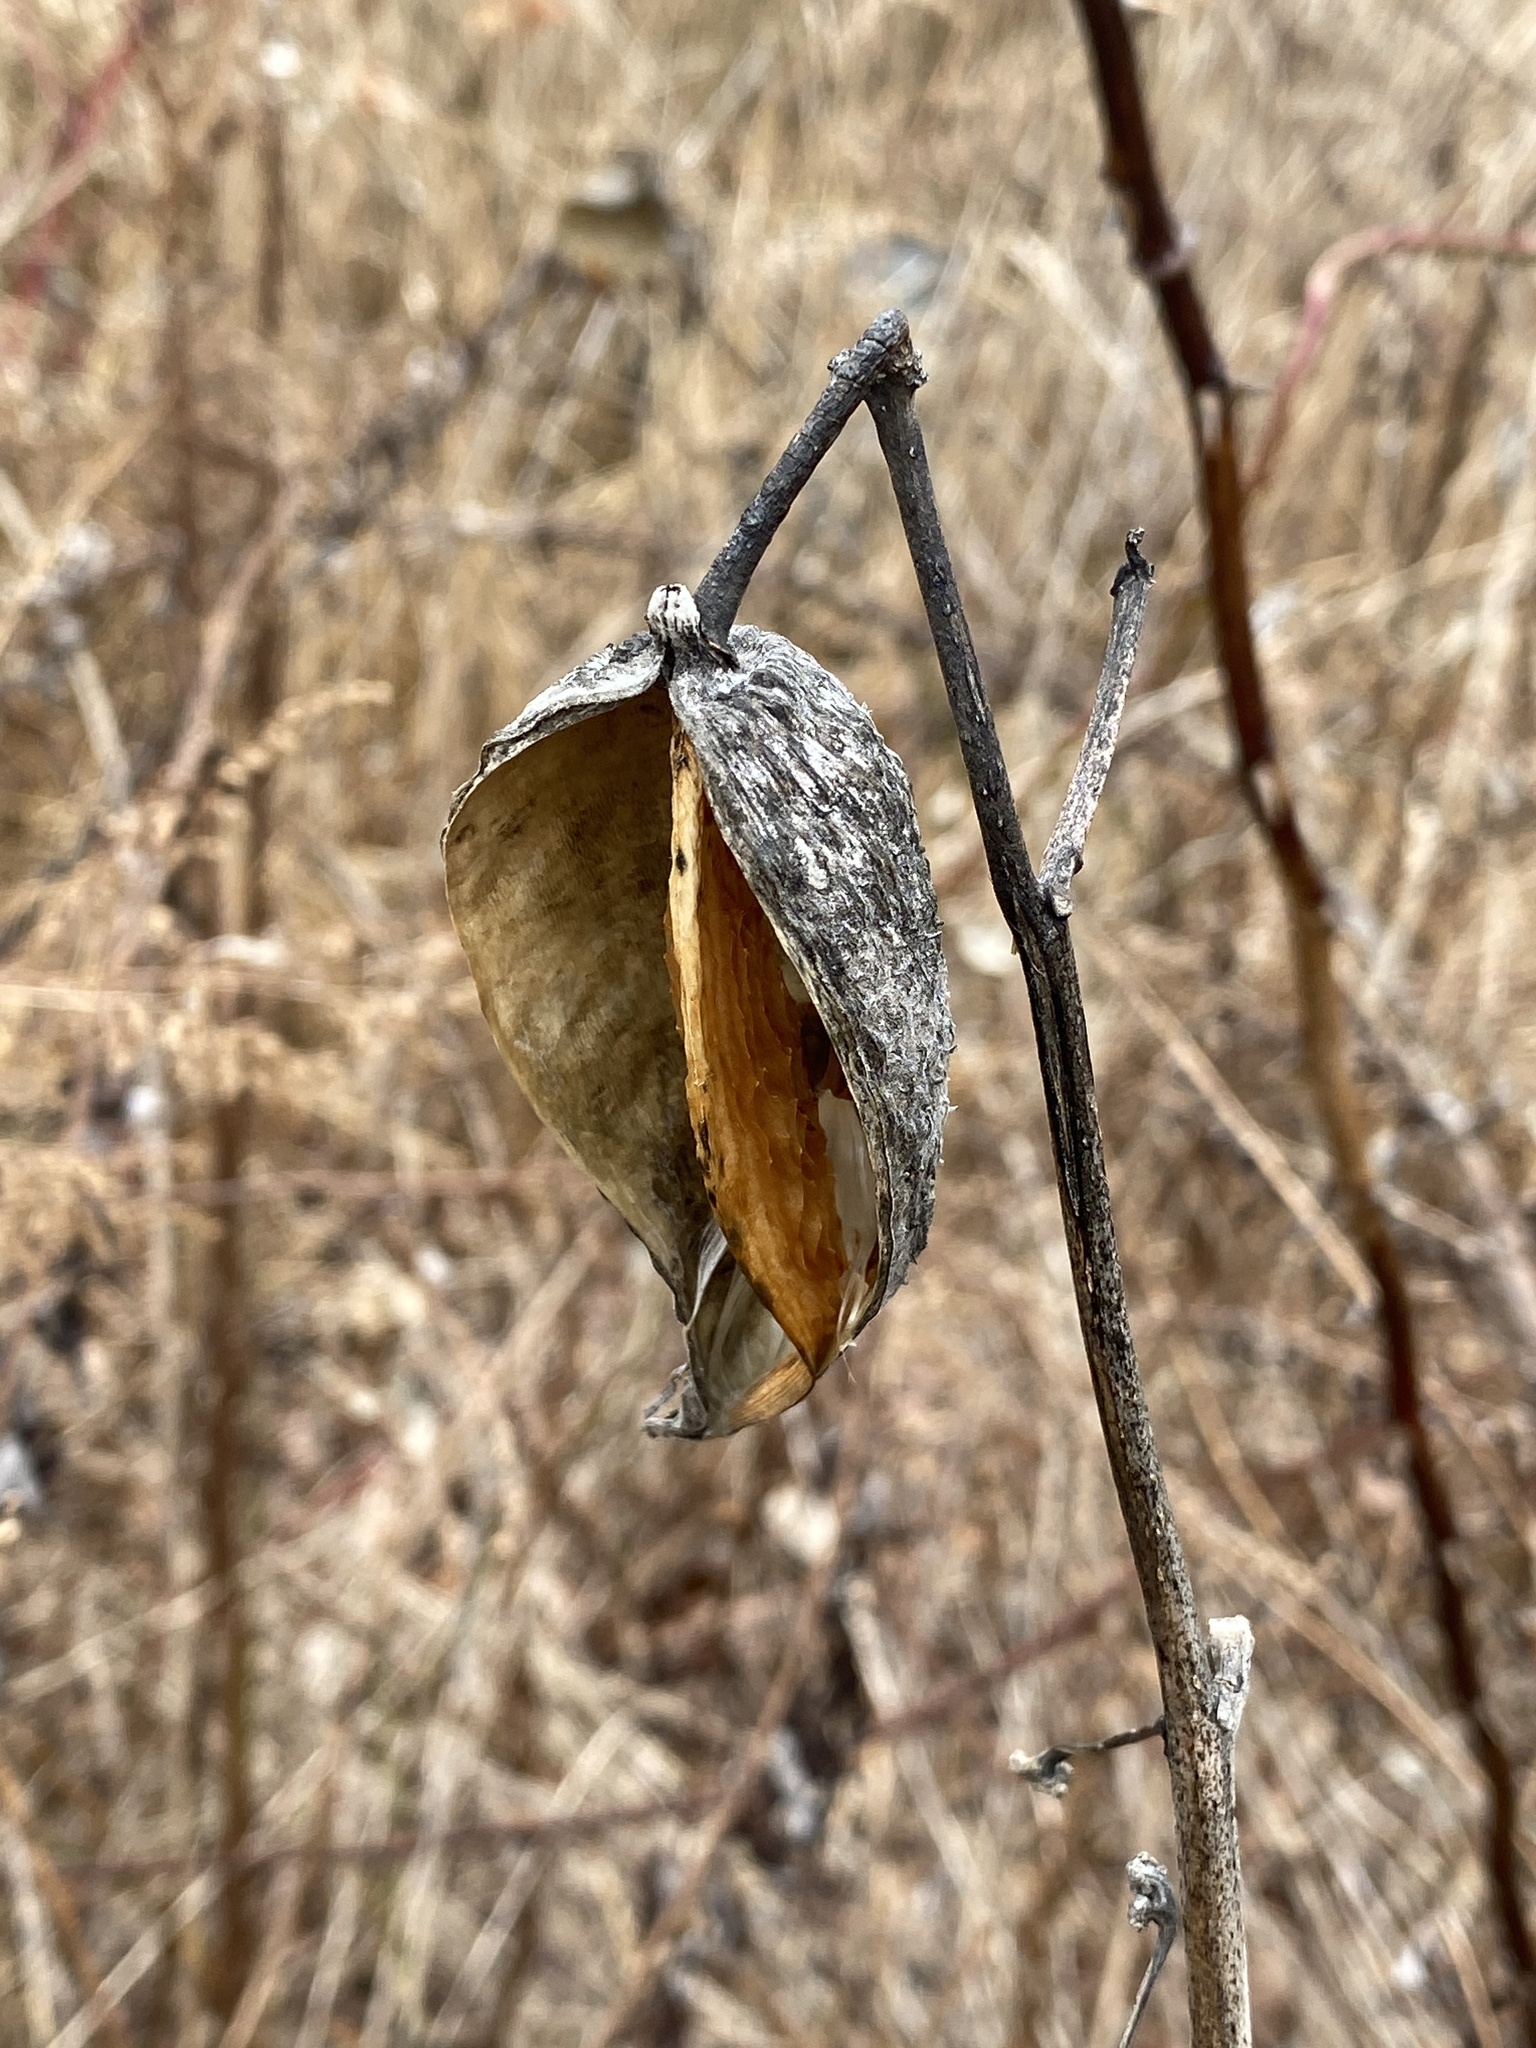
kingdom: Plantae
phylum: Tracheophyta
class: Magnoliopsida
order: Gentianales
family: Apocynaceae
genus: Asclepias
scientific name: Asclepias syriaca
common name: Common milkweed
